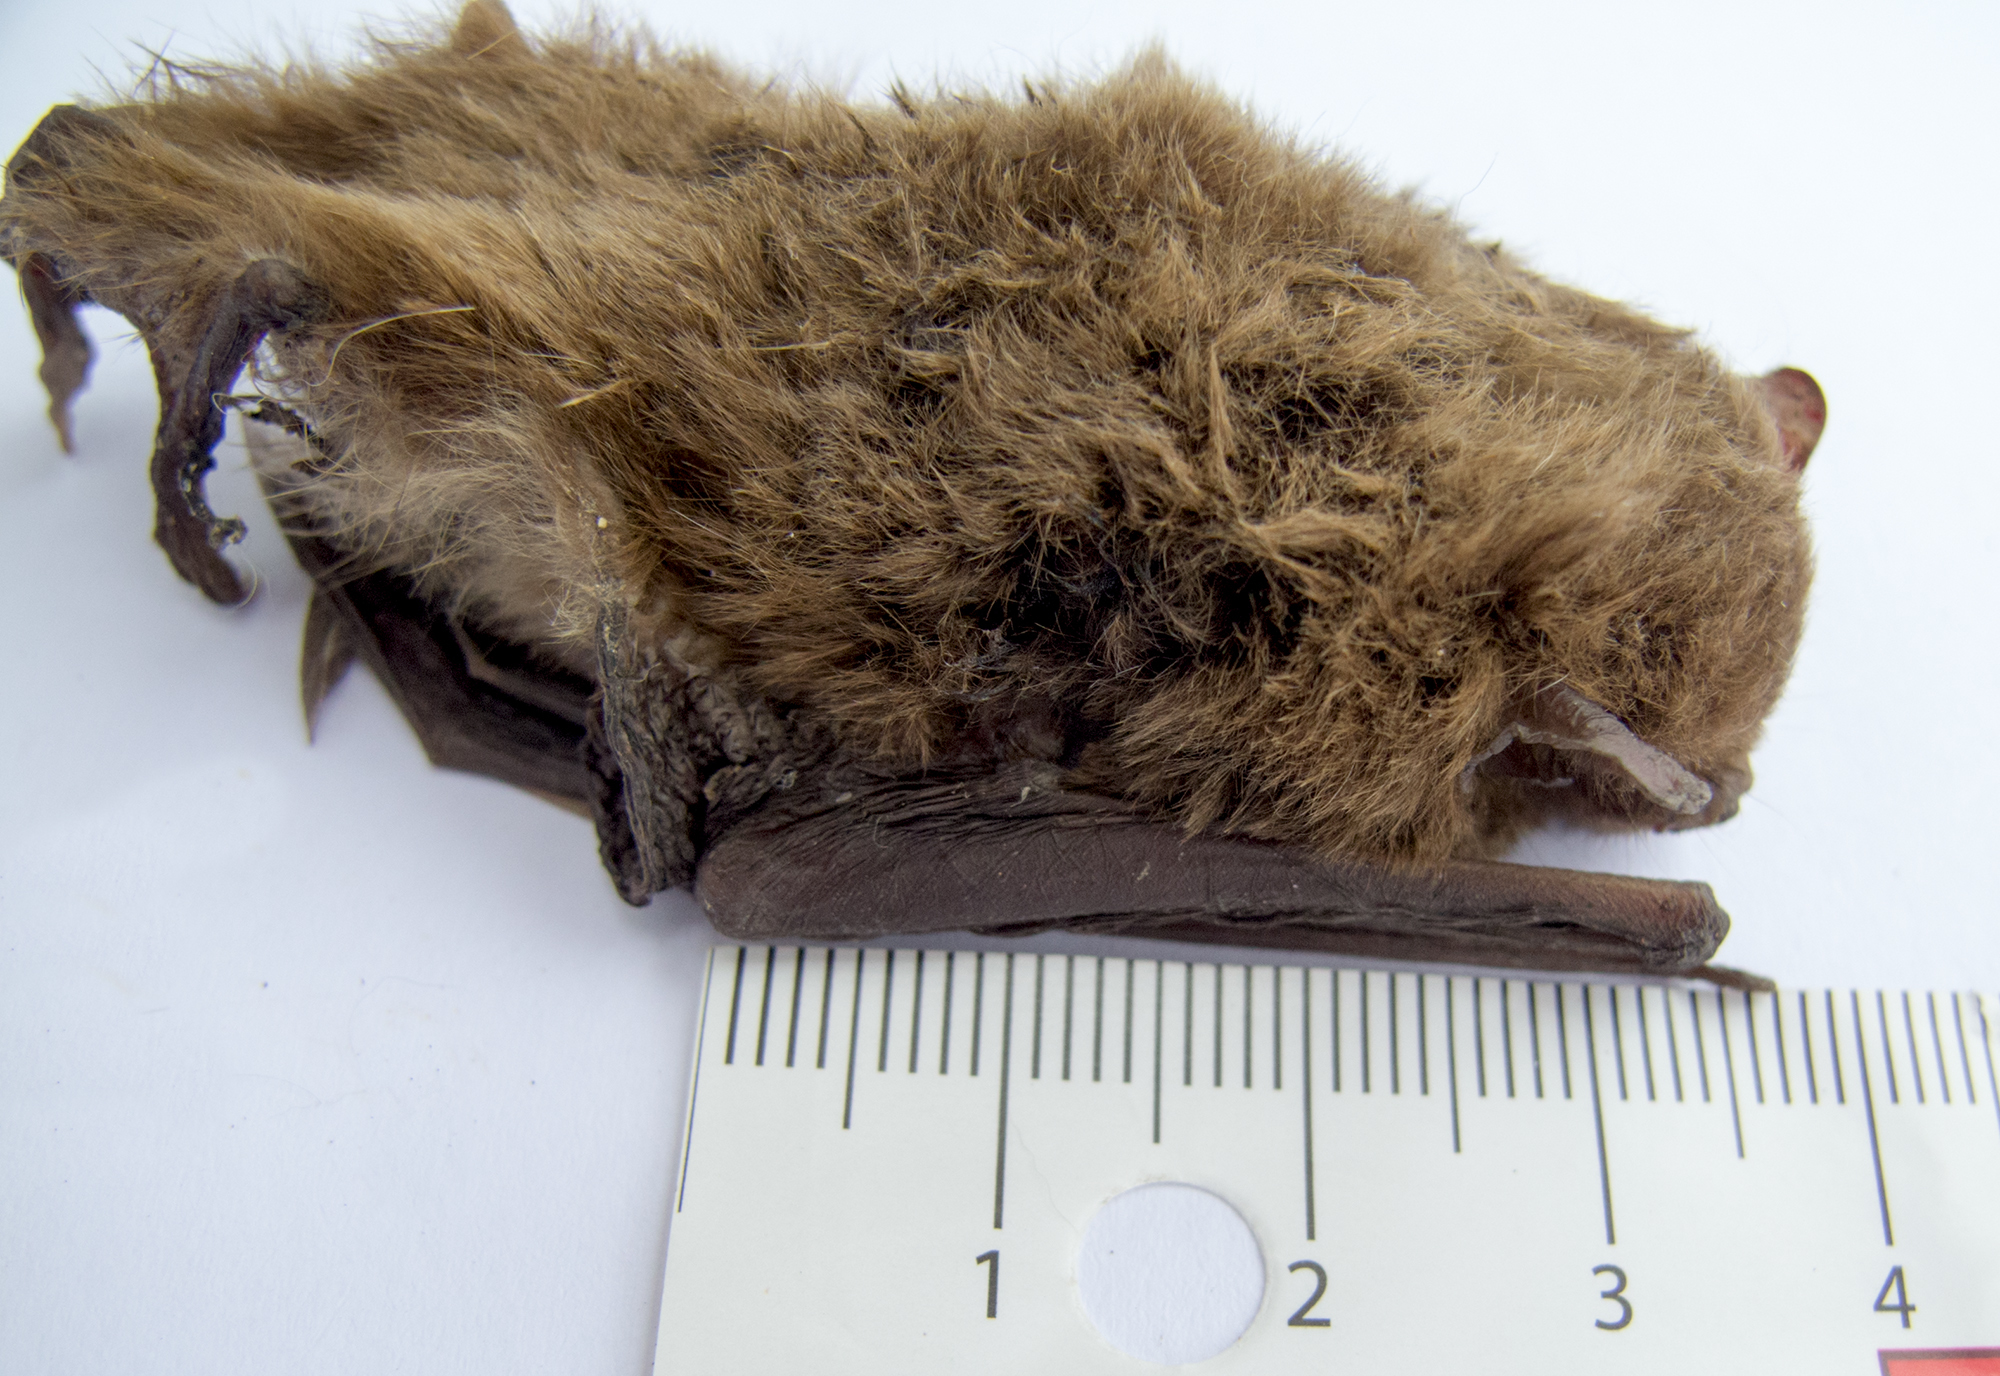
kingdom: Animalia
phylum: Chordata
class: Mammalia
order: Chiroptera
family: Vespertilionidae
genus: Pipistrellus
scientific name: Pipistrellus nathusii
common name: Nathusius's pipistrelle
